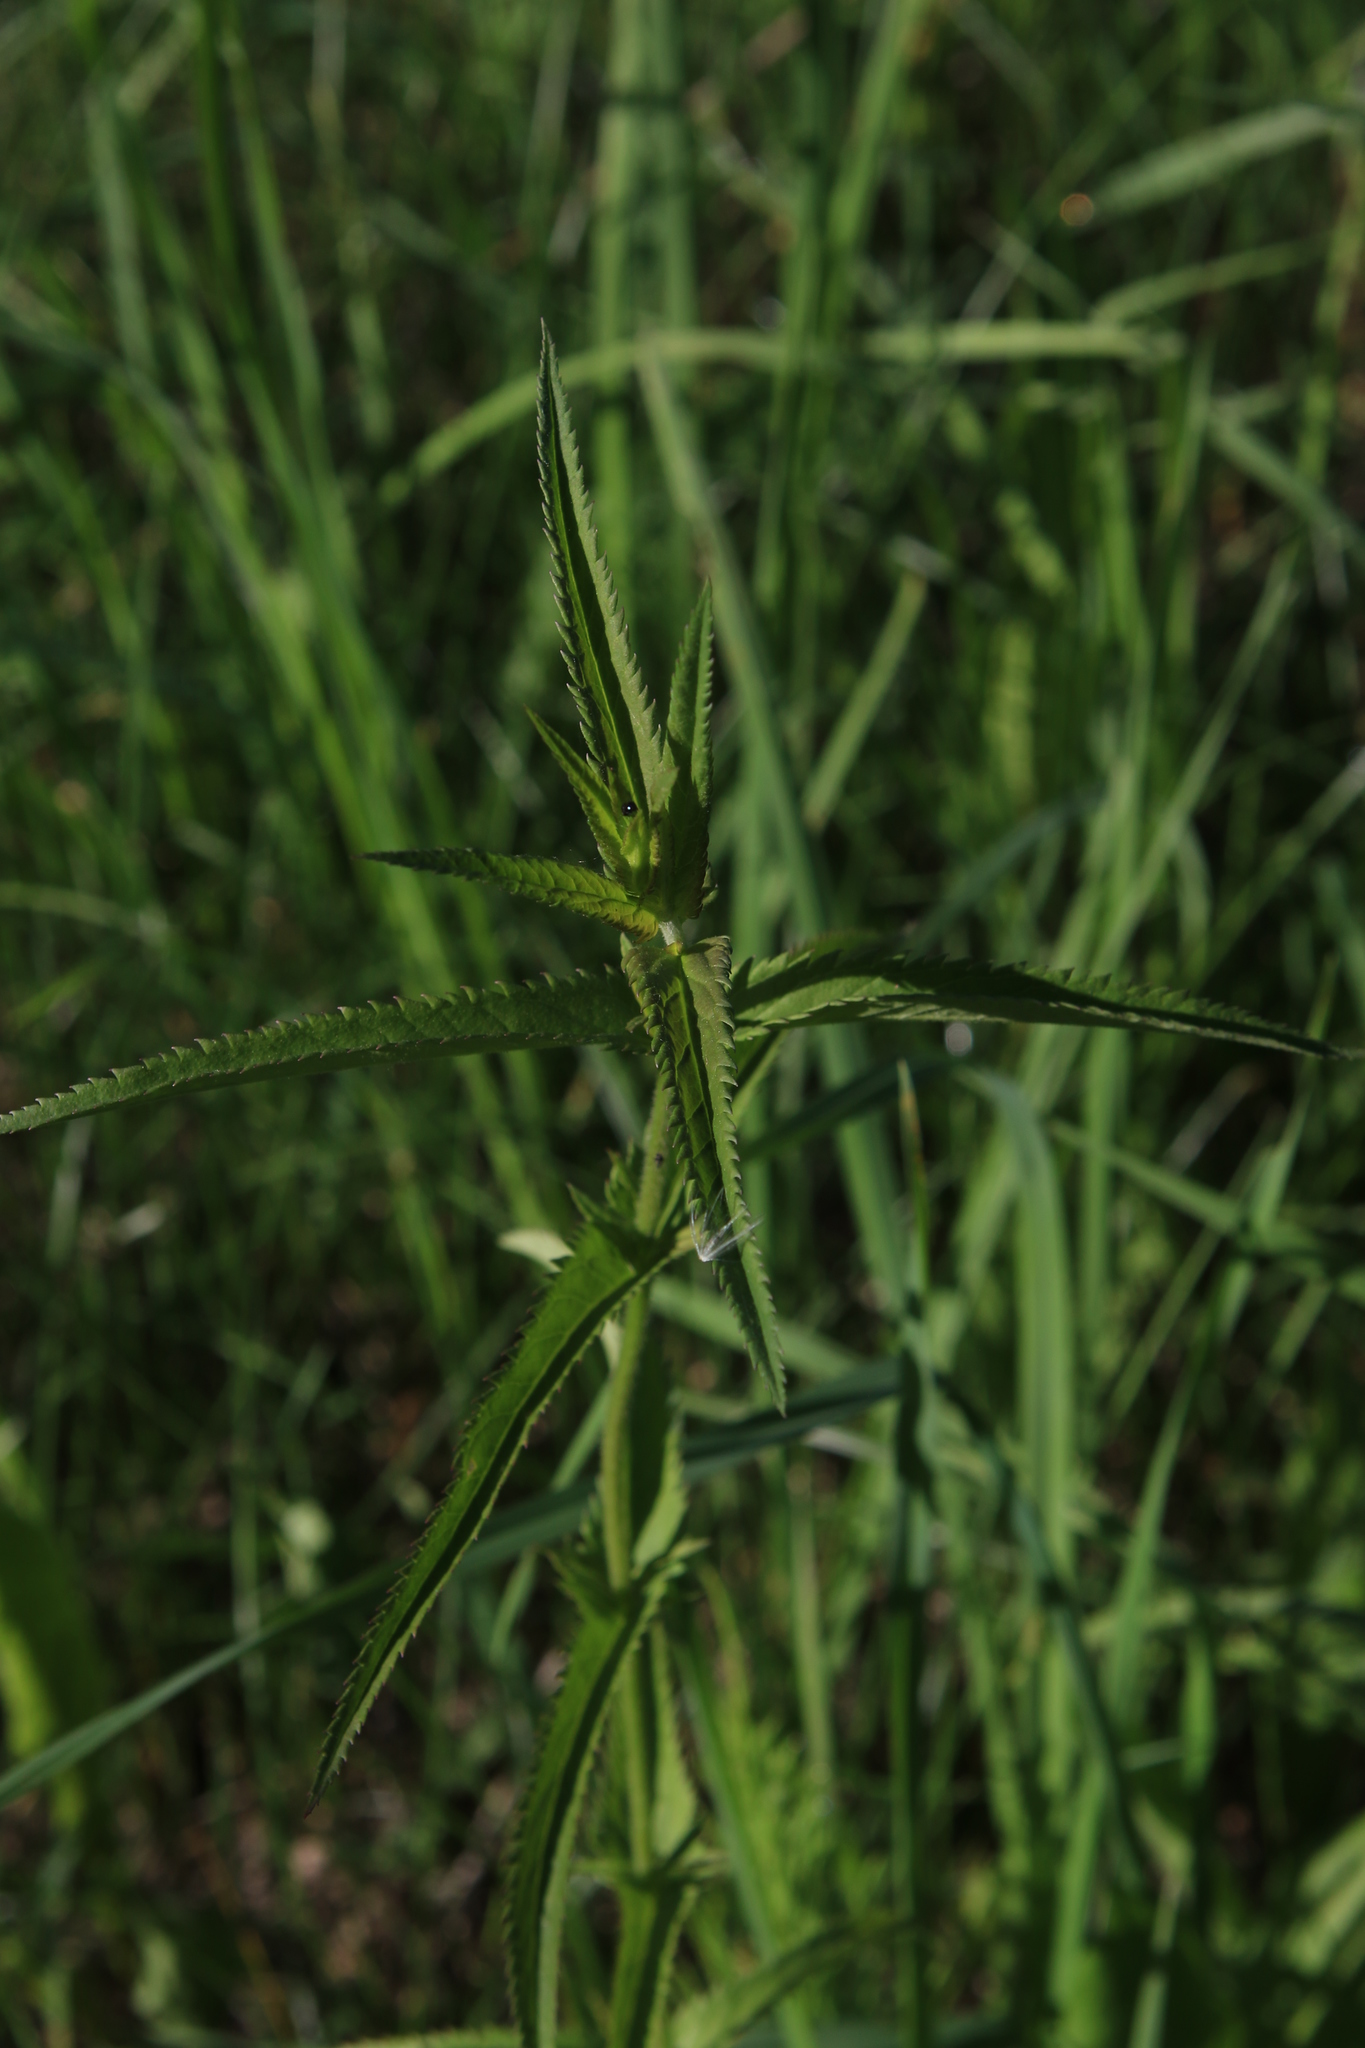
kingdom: Plantae
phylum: Tracheophyta
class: Magnoliopsida
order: Lamiales
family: Plantaginaceae
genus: Veronica
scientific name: Veronica longifolia
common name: Garden speedwell
